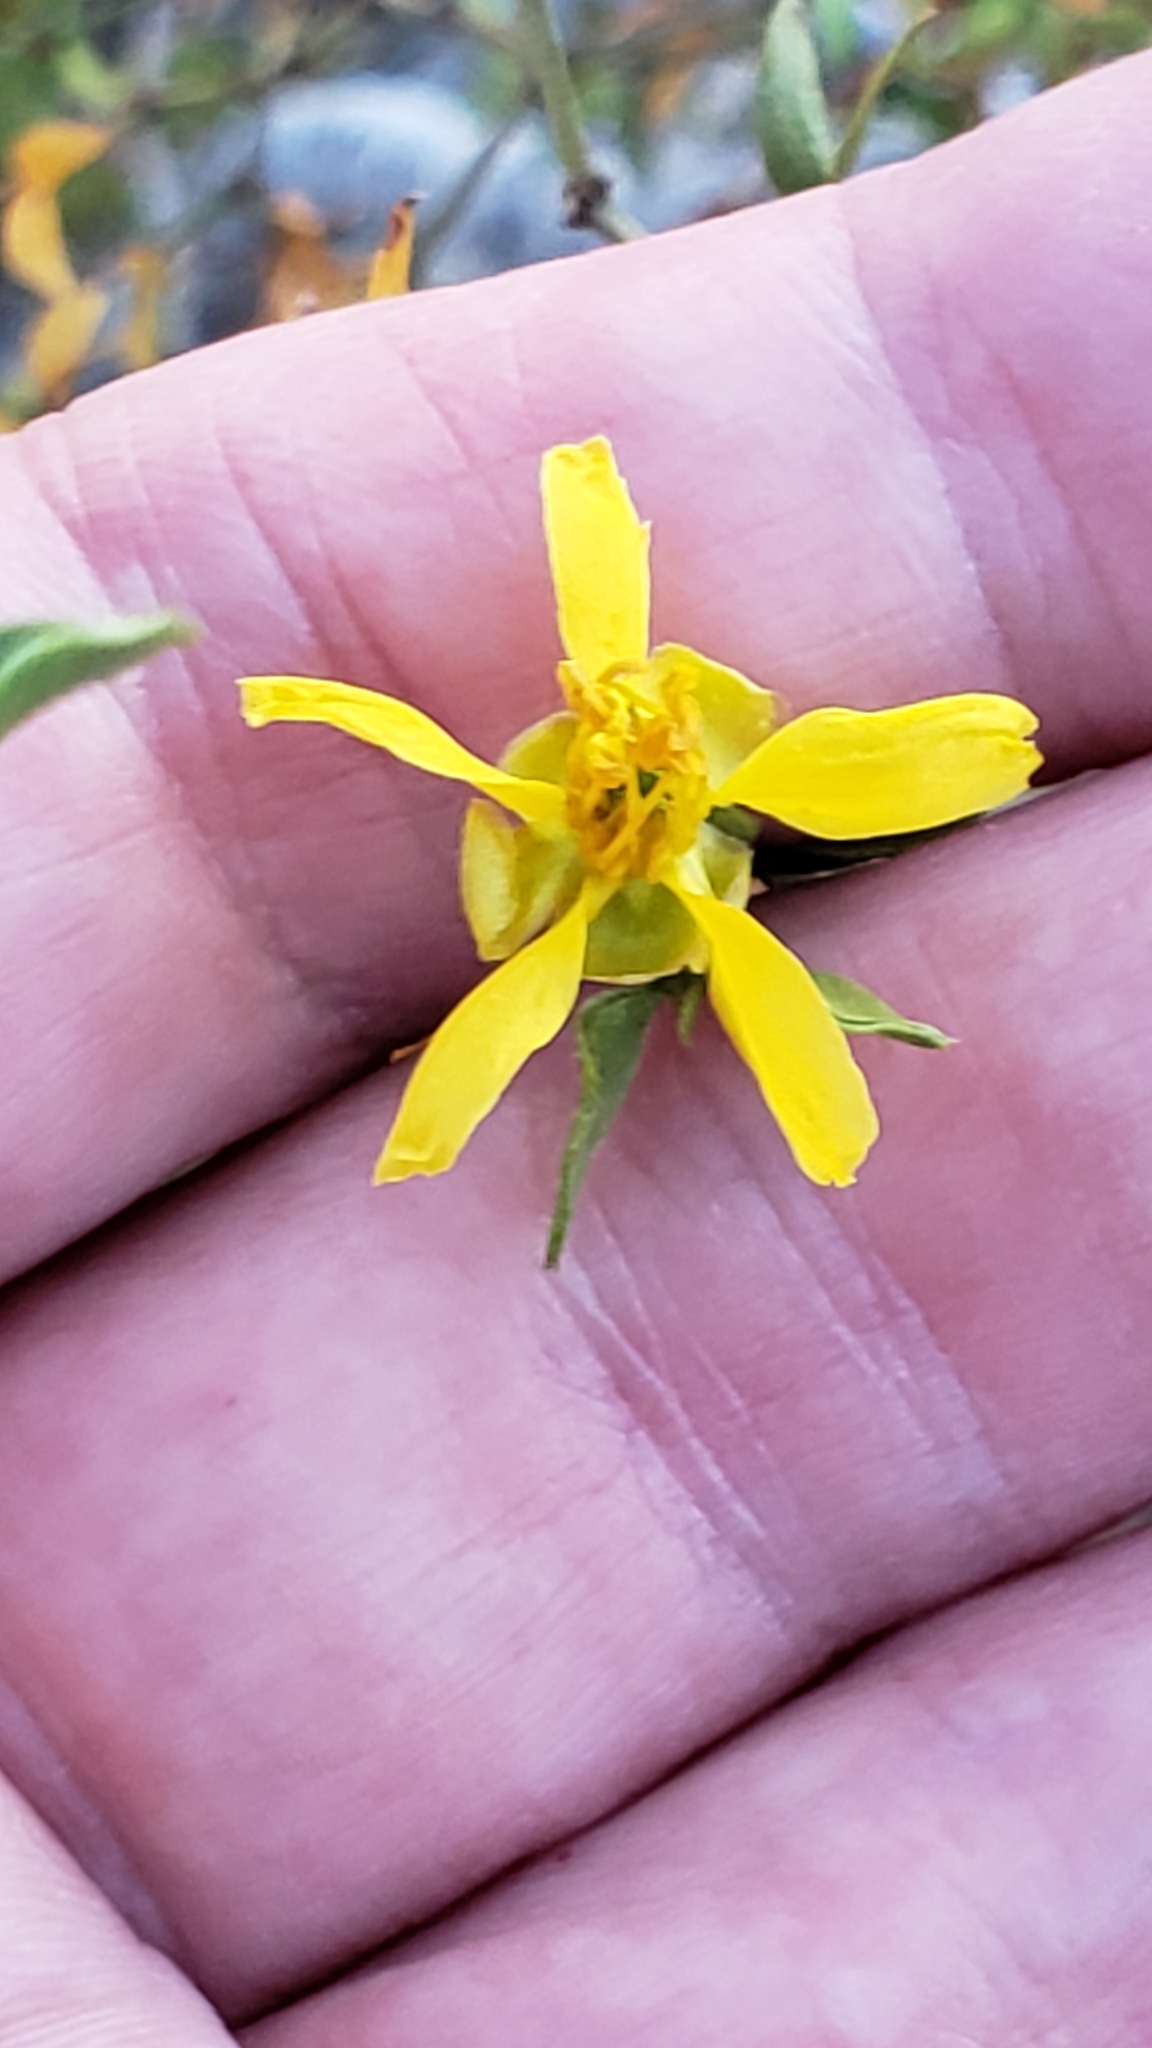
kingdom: Plantae
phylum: Tracheophyta
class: Magnoliopsida
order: Zygophyllales
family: Zygophyllaceae
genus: Larrea
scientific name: Larrea tridentata
